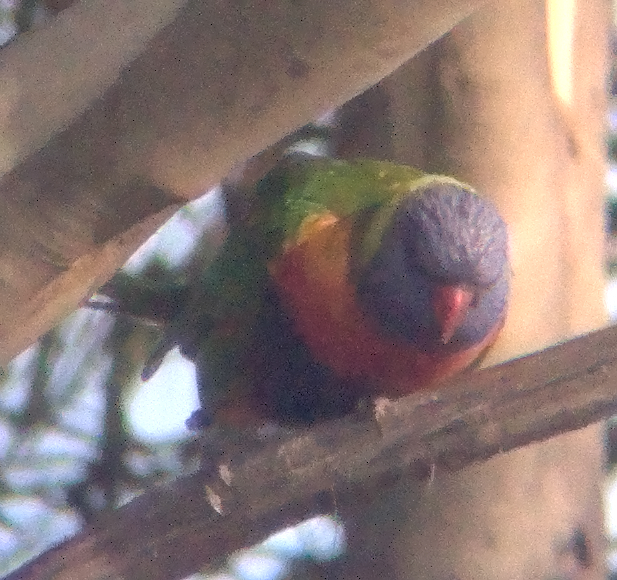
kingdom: Animalia
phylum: Chordata
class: Aves
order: Psittaciformes
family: Psittacidae
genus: Trichoglossus
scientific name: Trichoglossus haematodus
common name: Coconut lorikeet
